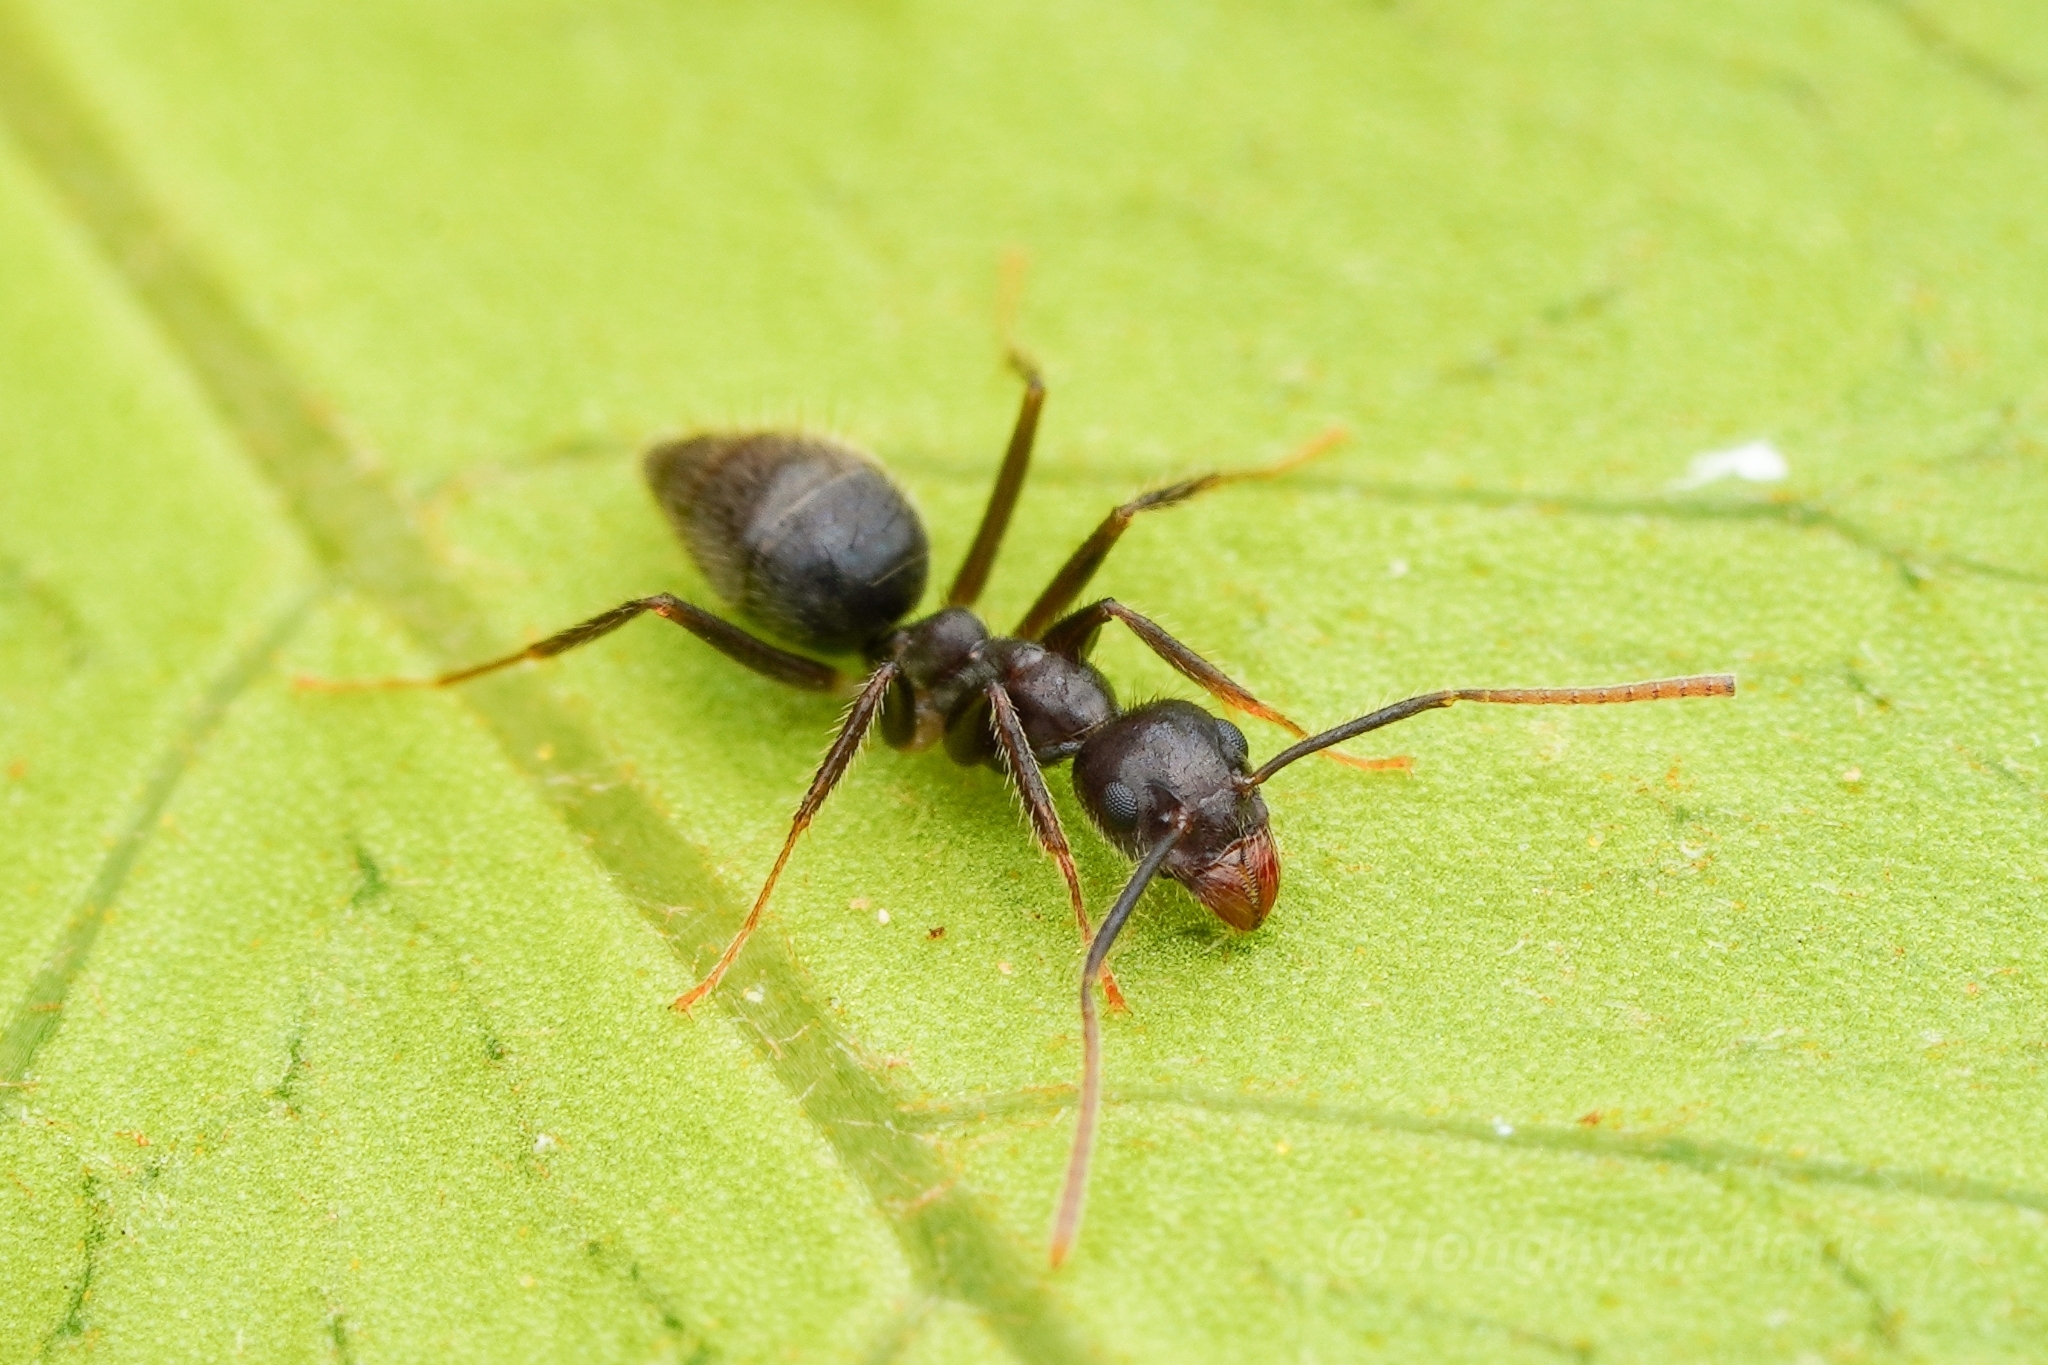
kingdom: Animalia
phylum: Arthropoda
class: Insecta
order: Hymenoptera
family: Formicidae
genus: Technomyrmex
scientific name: Technomyrmex grandis
